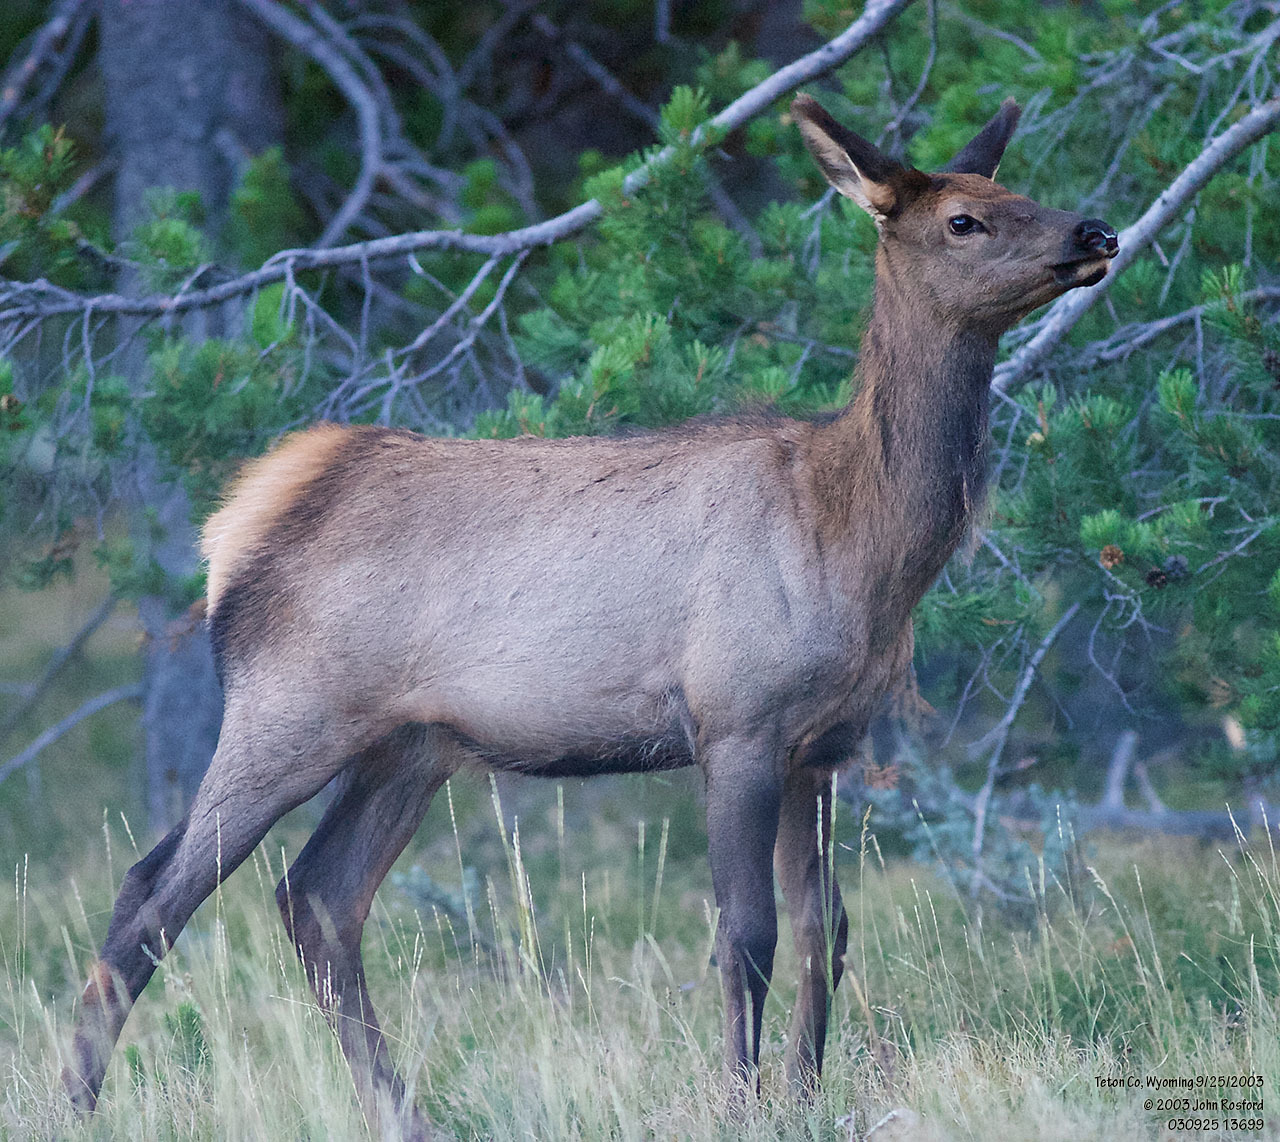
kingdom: Animalia
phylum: Chordata
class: Mammalia
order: Artiodactyla
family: Cervidae
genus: Cervus
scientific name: Cervus elaphus
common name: Red deer
